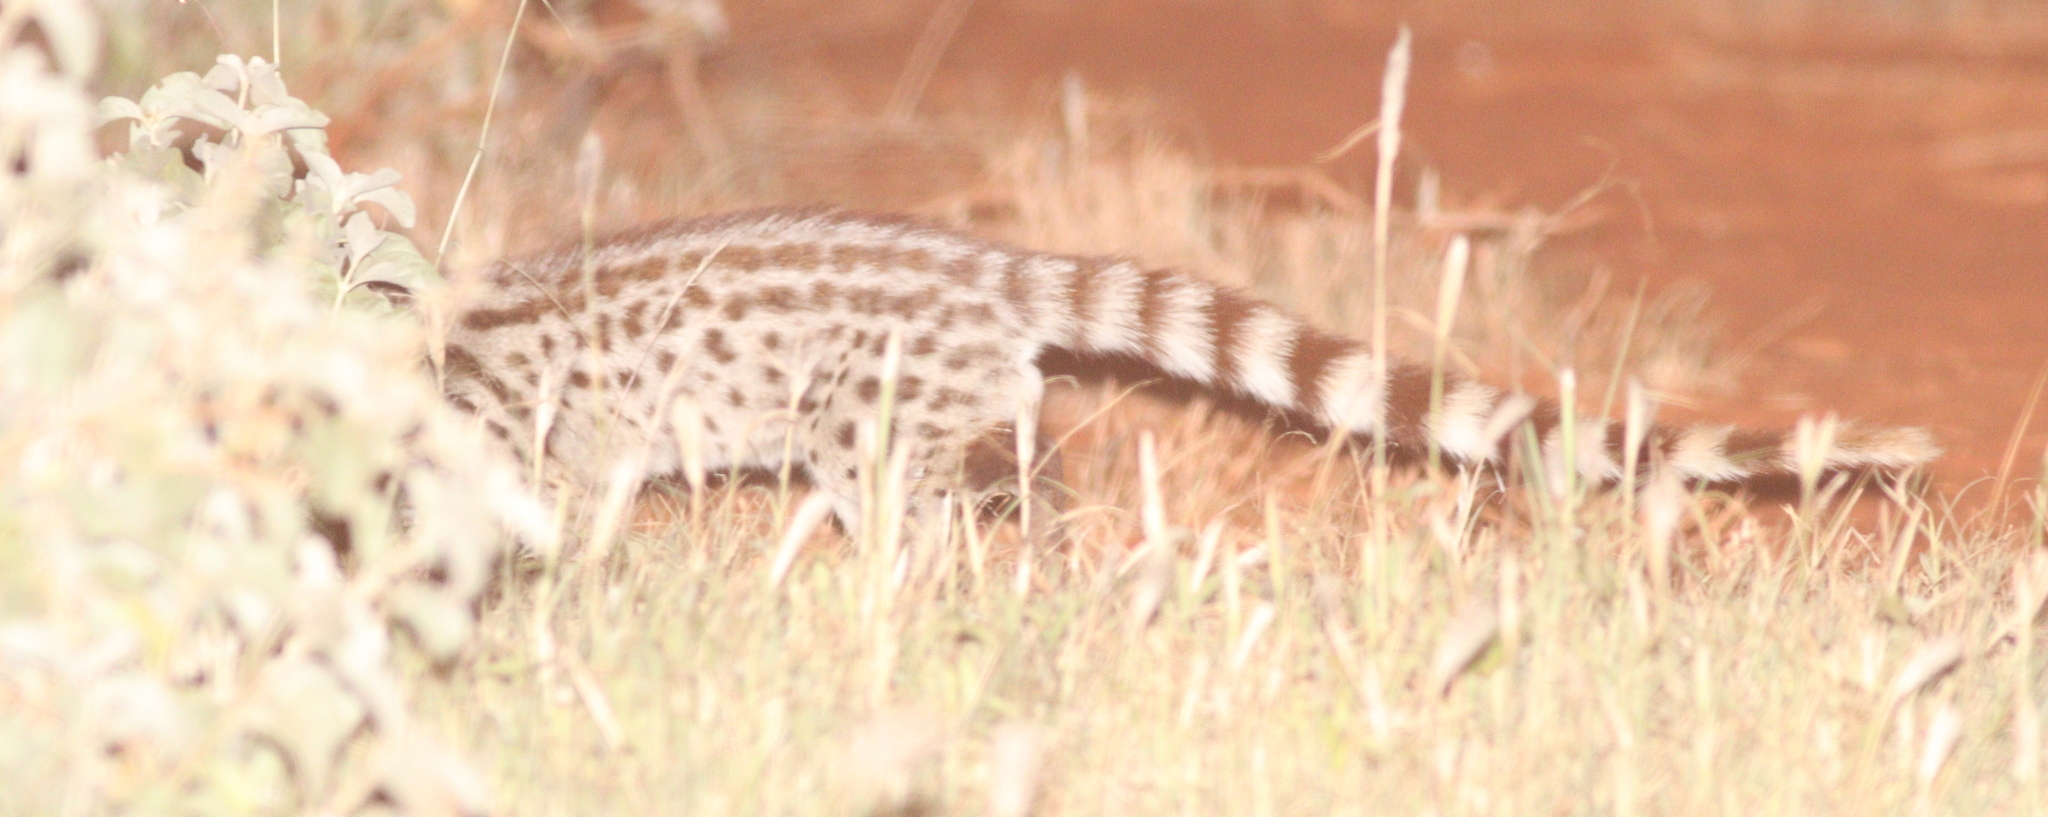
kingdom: Animalia
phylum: Chordata
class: Mammalia
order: Carnivora
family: Viverridae
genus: Genetta
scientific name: Genetta genetta
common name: Common genet
